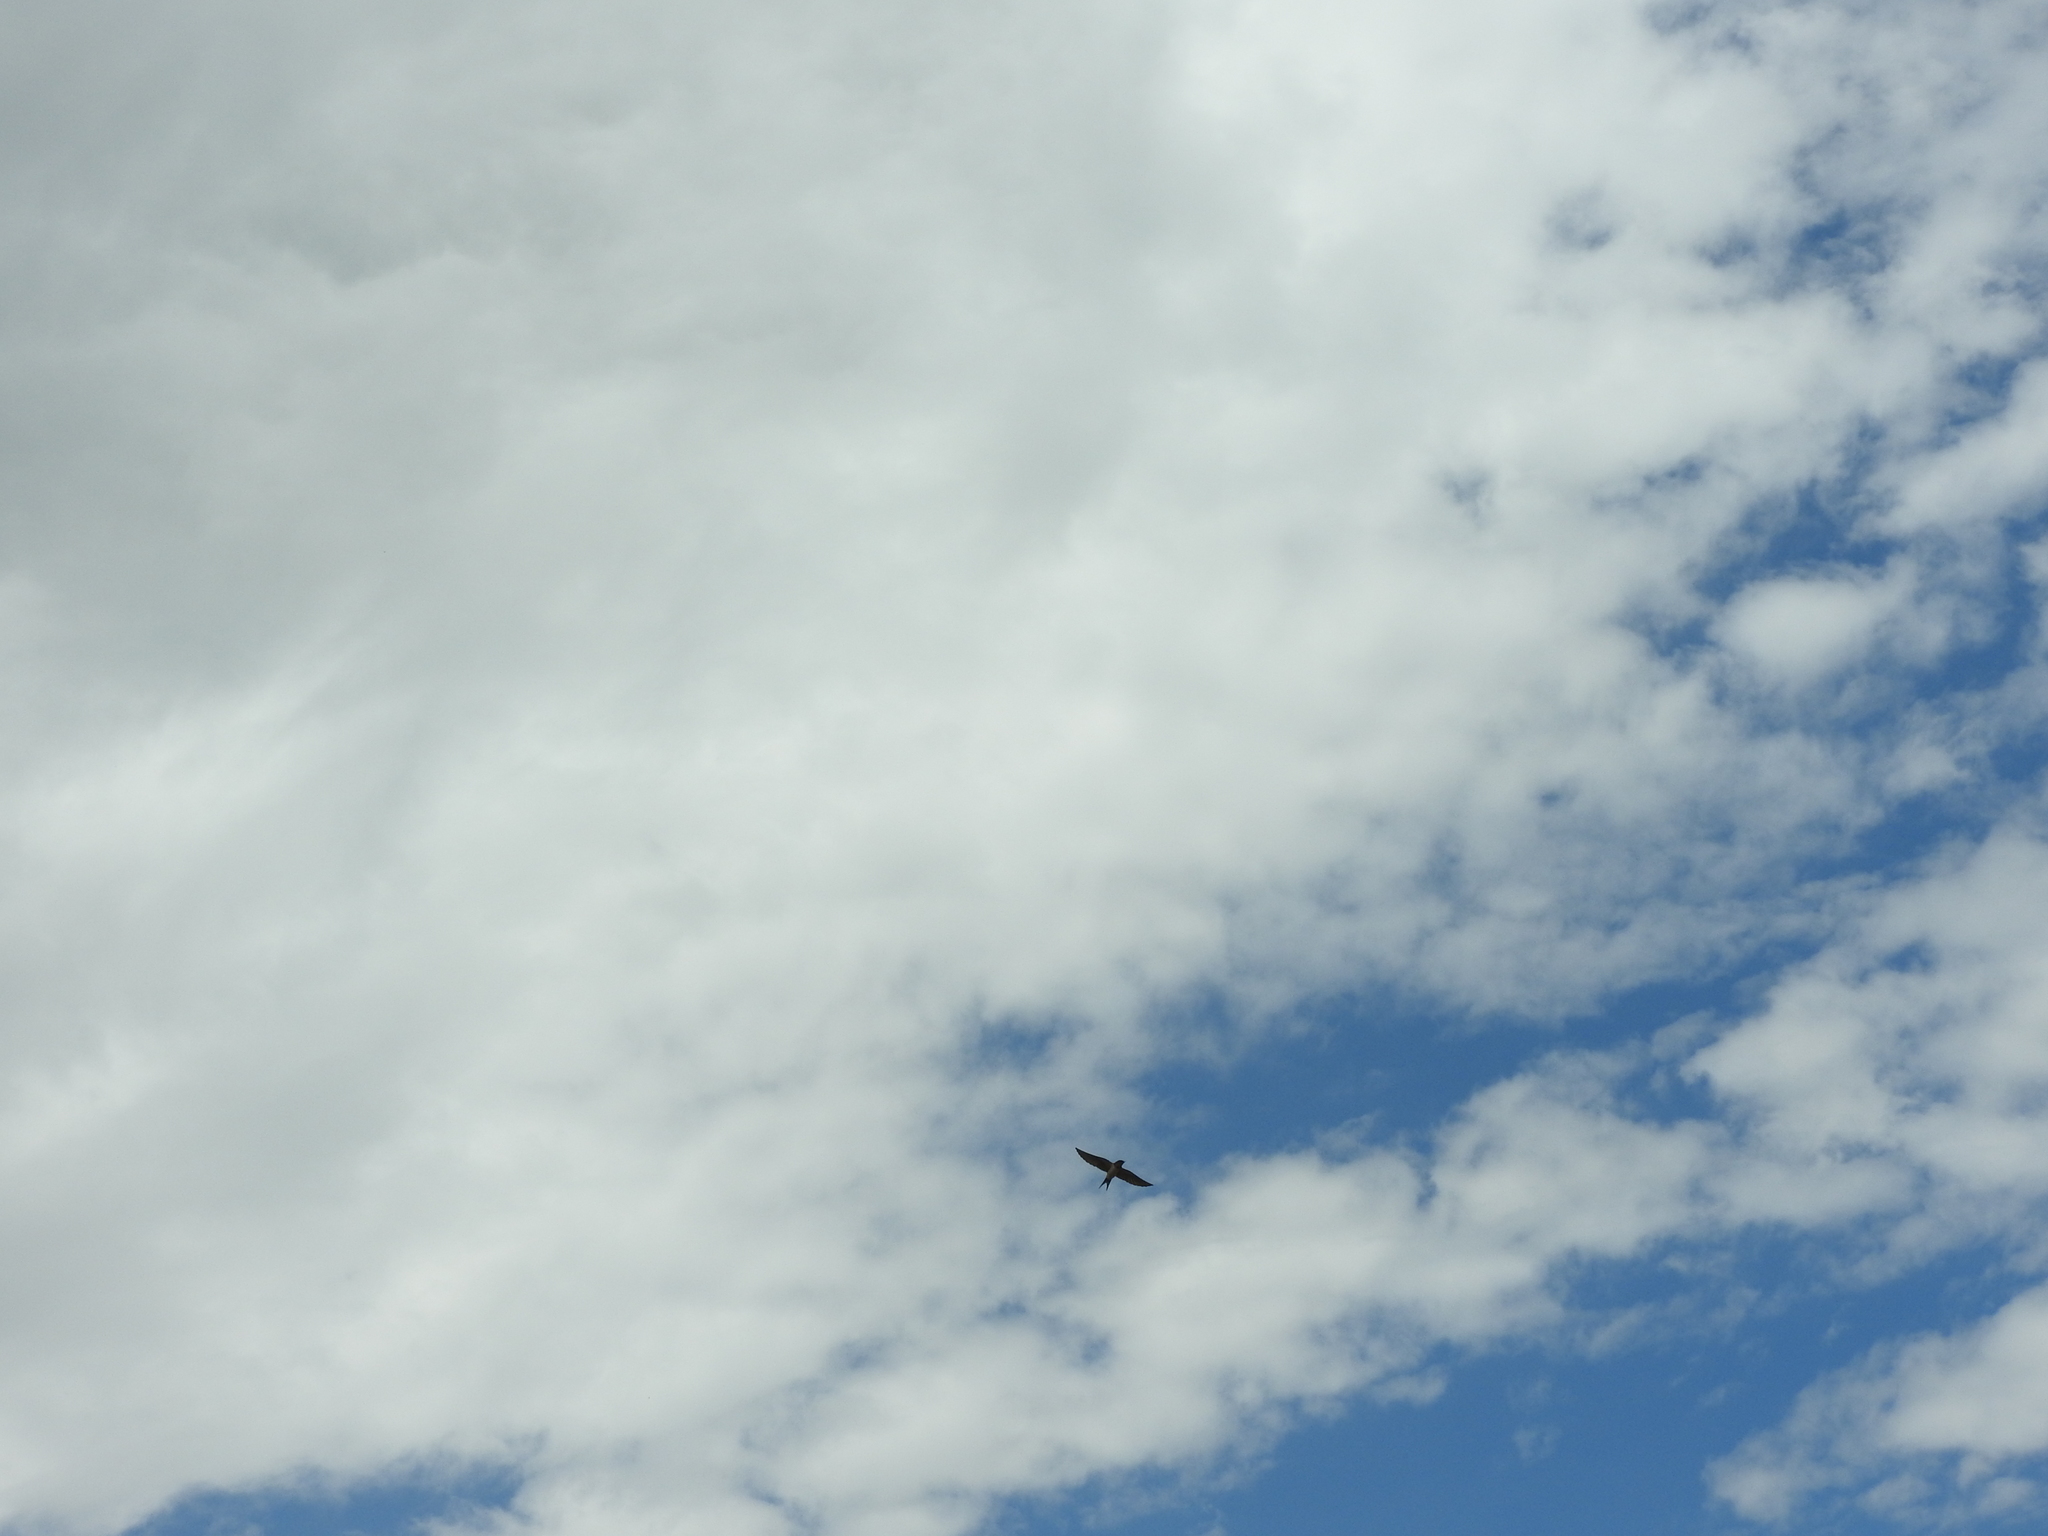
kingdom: Animalia
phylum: Chordata
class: Aves
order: Passeriformes
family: Hirundinidae
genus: Hirundo
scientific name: Hirundo rustica
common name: Barn swallow
